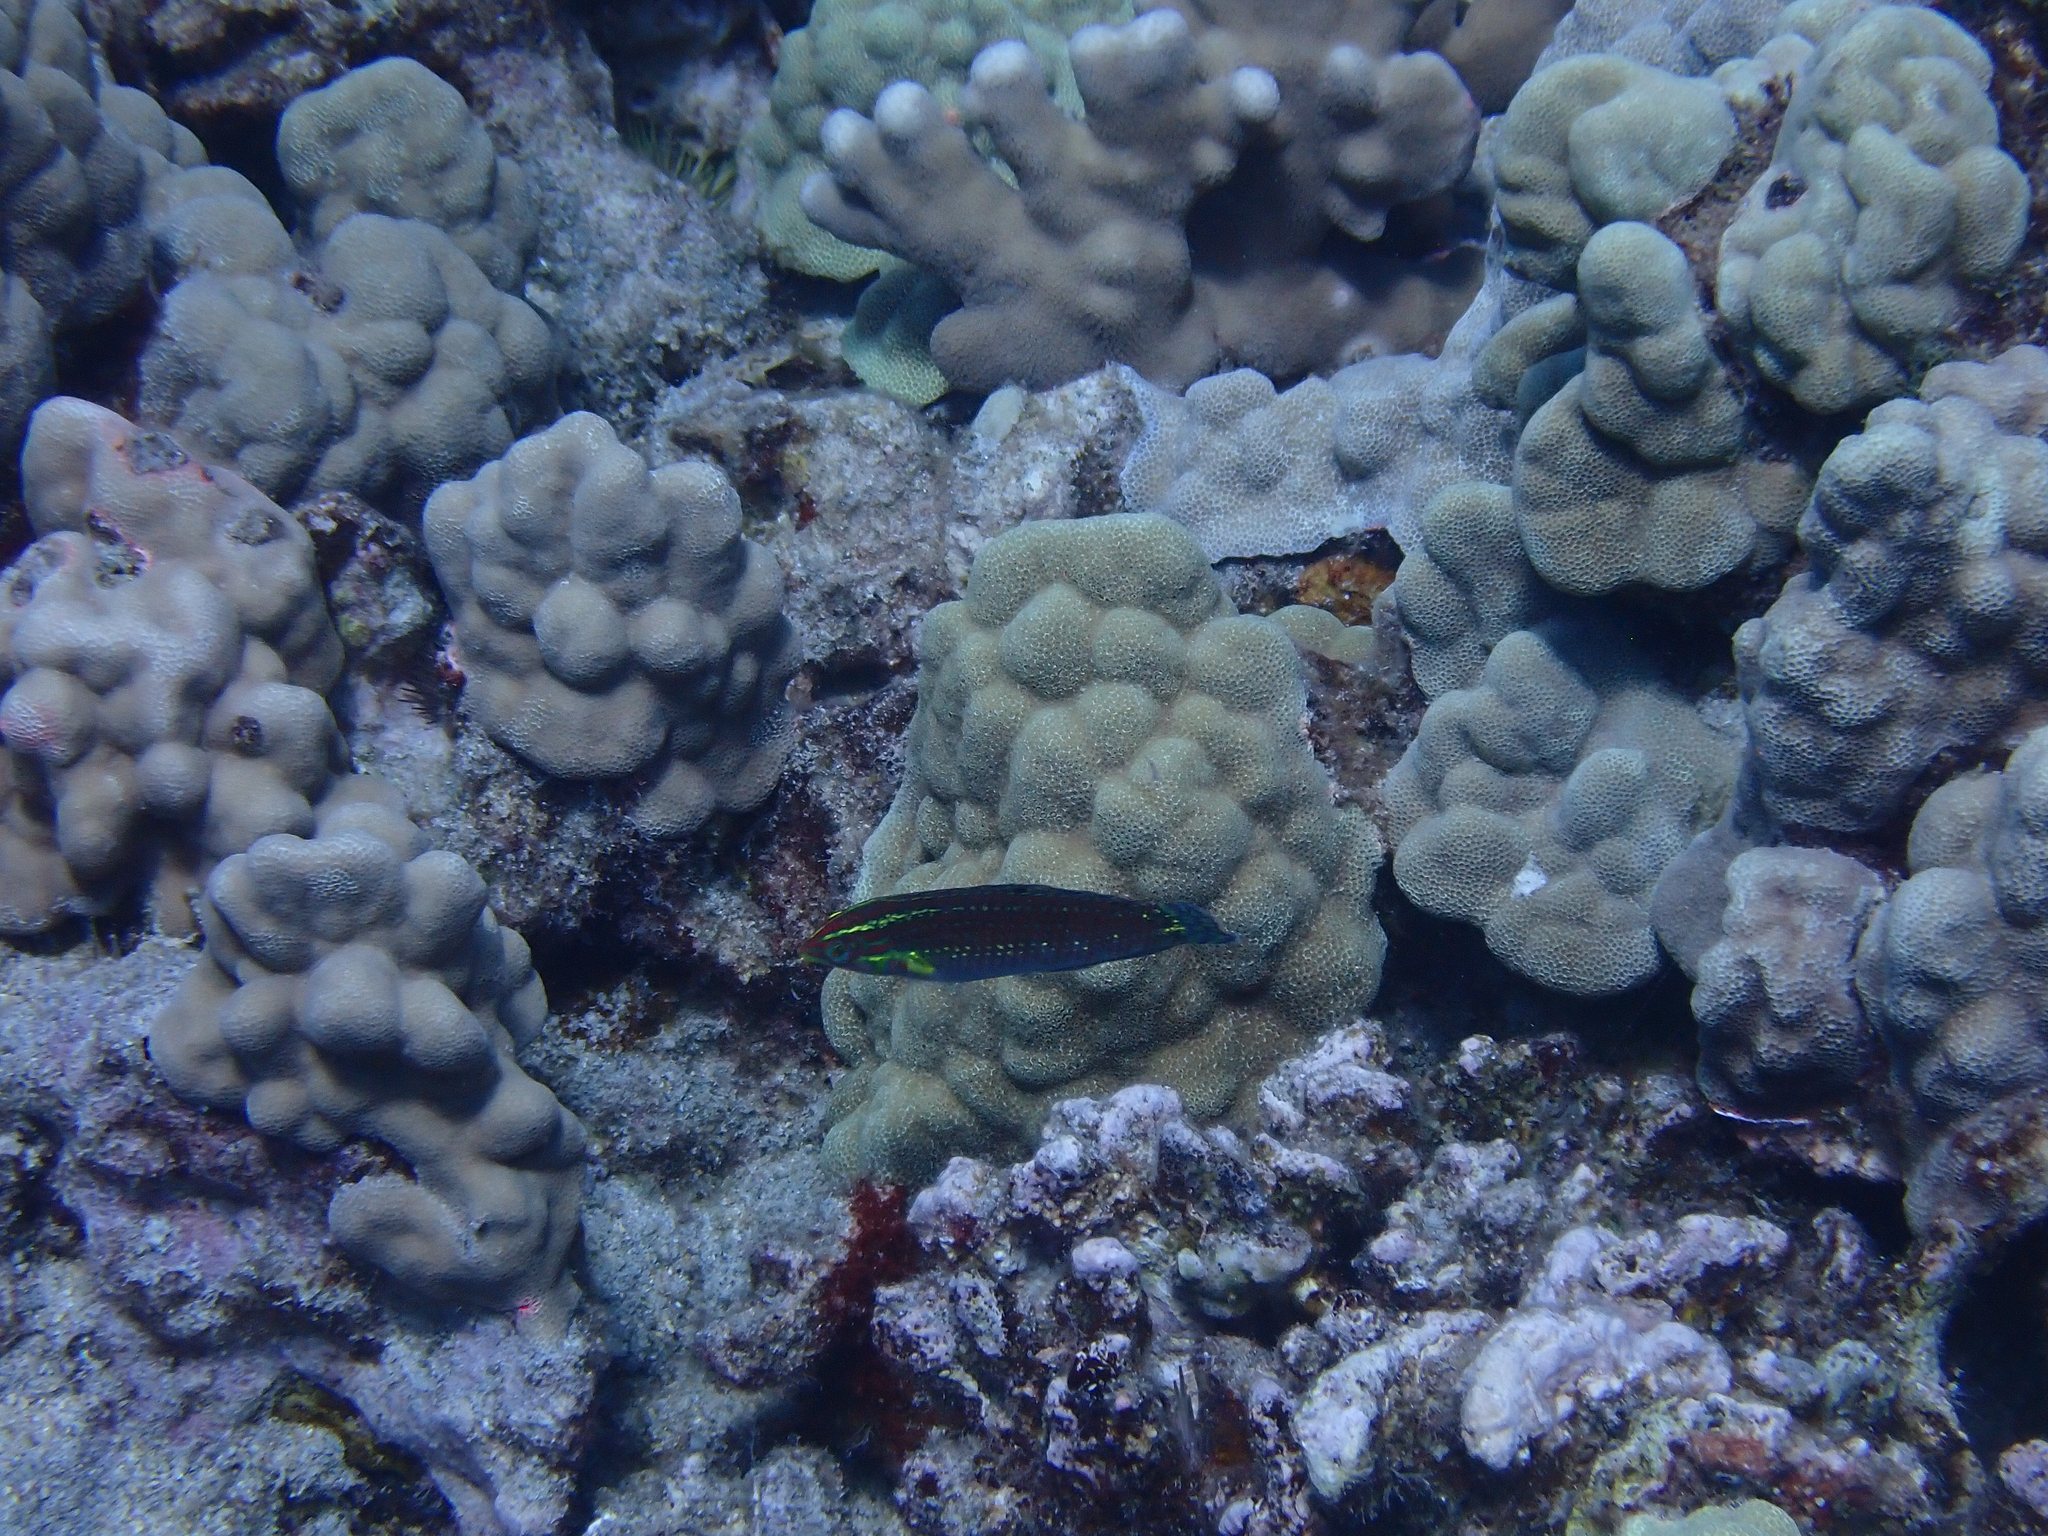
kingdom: Animalia
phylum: Chordata
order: Perciformes
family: Labridae
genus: Halichoeres
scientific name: Halichoeres ornatissimus
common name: Ornamented wrasse
